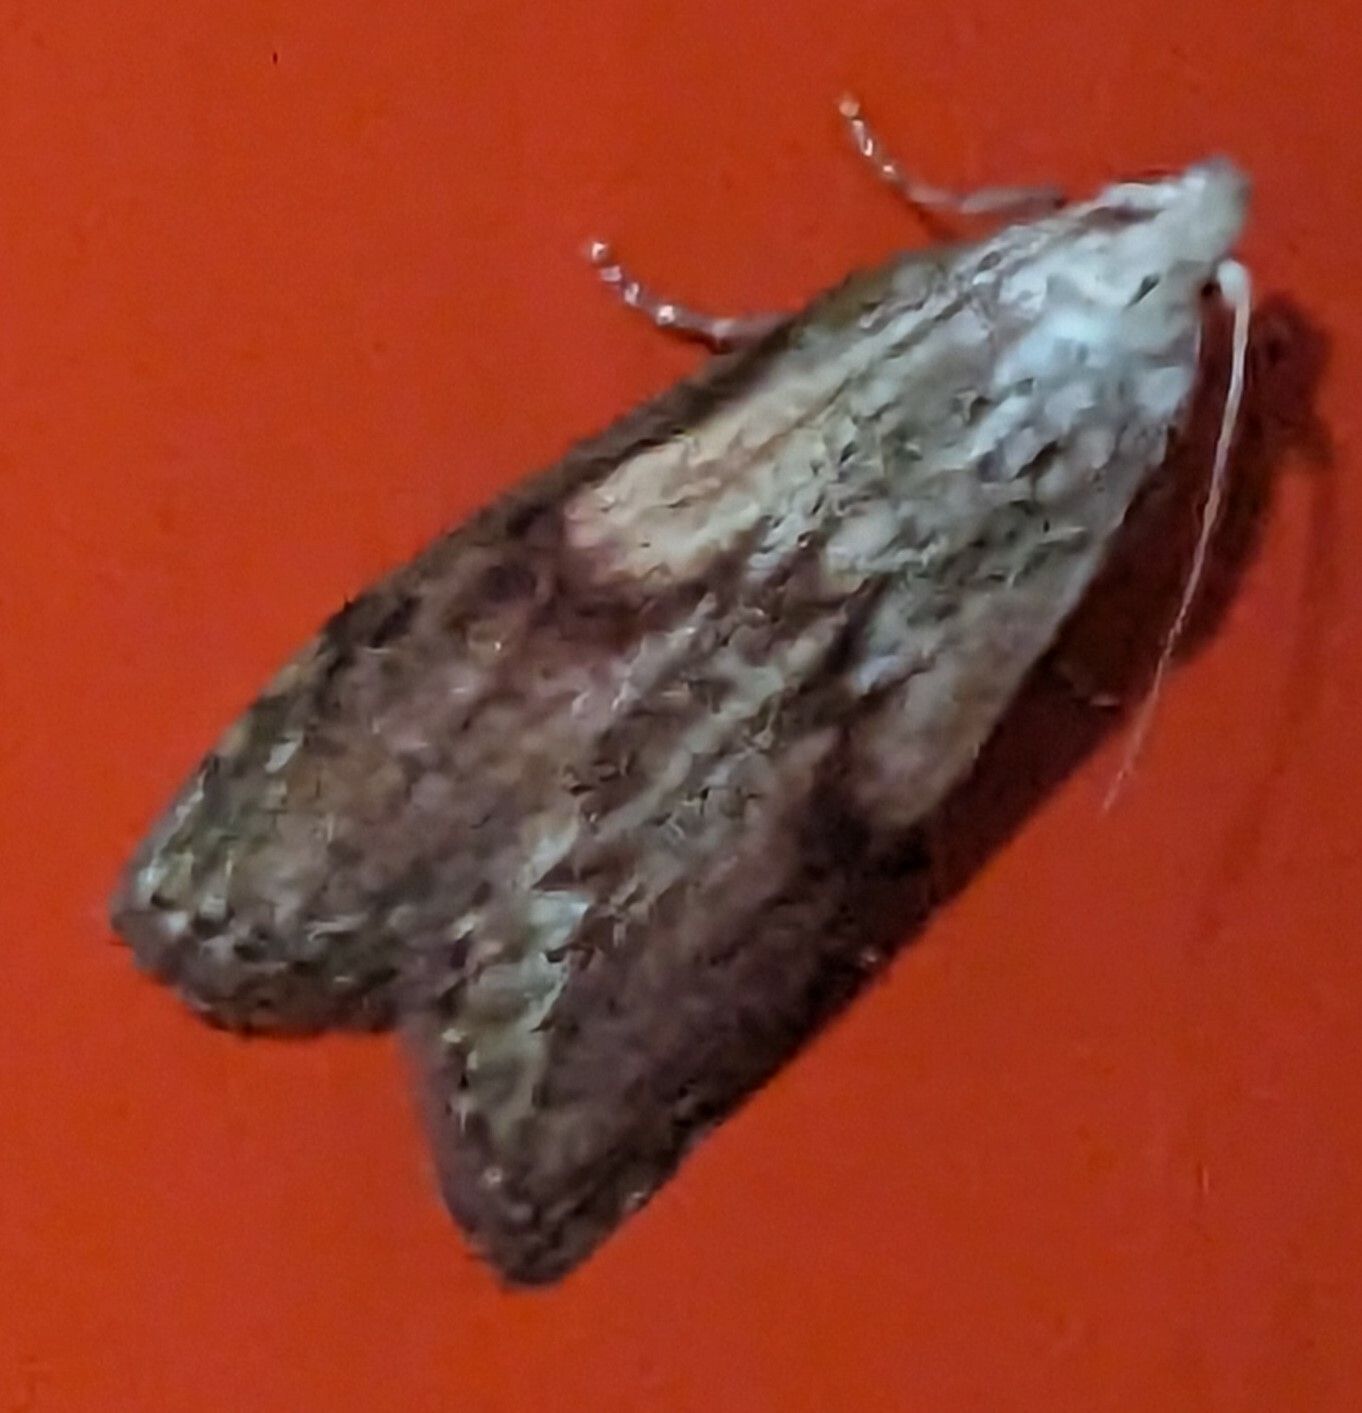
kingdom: Animalia
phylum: Arthropoda
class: Insecta
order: Lepidoptera
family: Pyralidae
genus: Aphomia
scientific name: Aphomia sociella
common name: Bee moth
